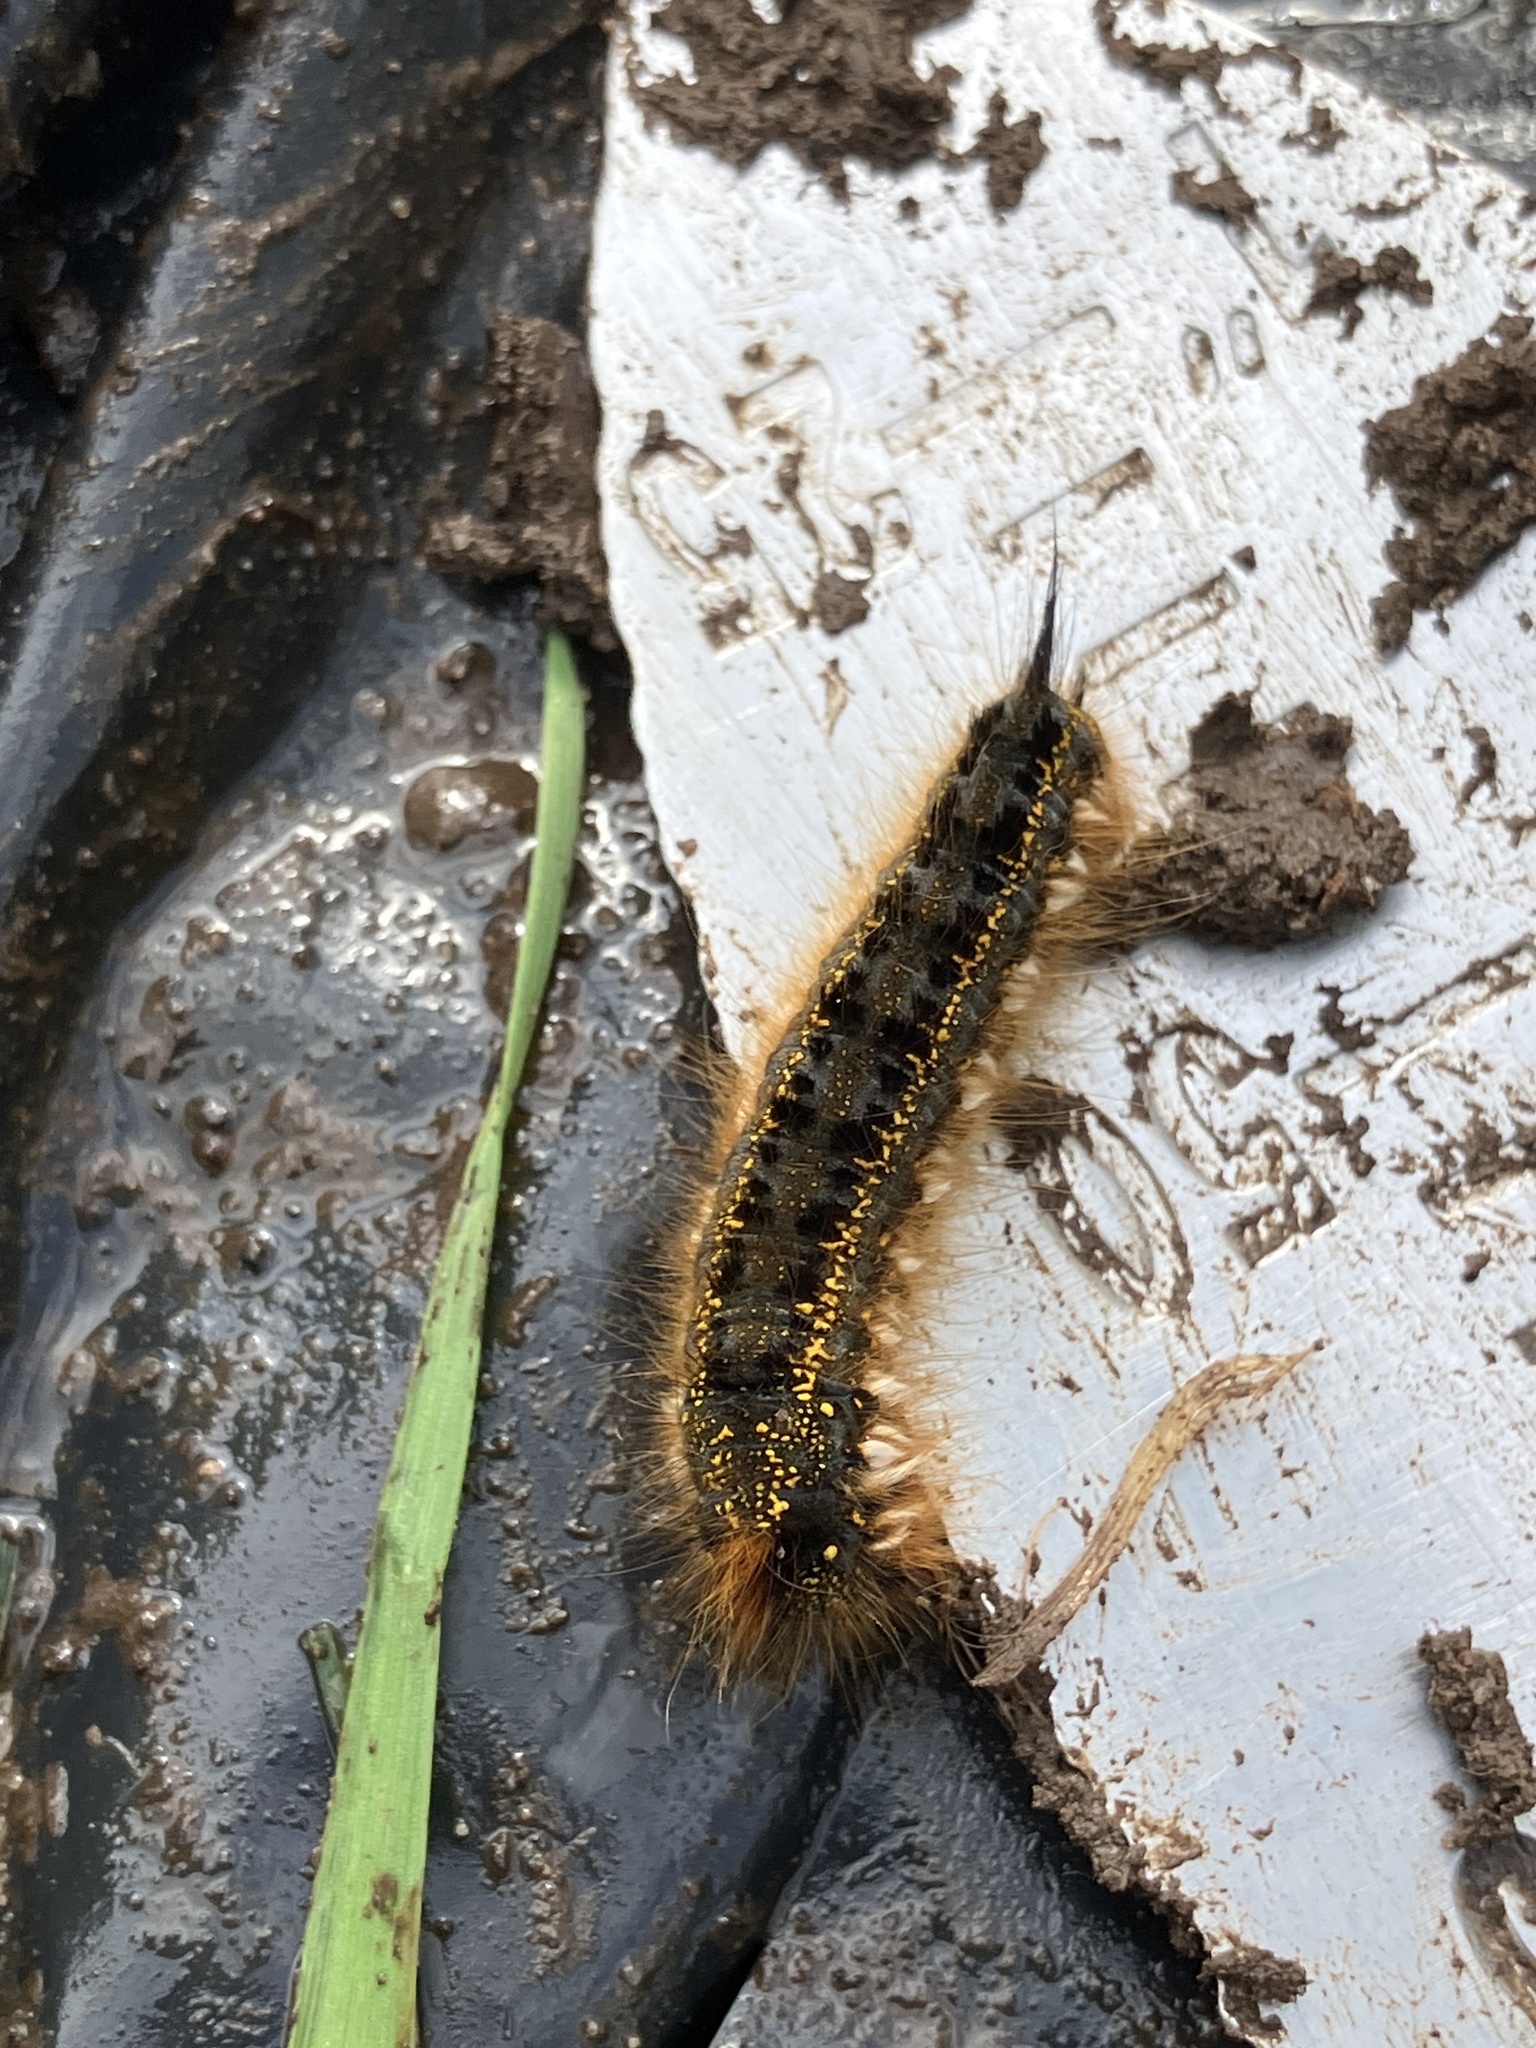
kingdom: Animalia
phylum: Arthropoda
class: Insecta
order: Lepidoptera
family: Lasiocampidae
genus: Euthrix
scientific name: Euthrix potatoria
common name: Drinker
